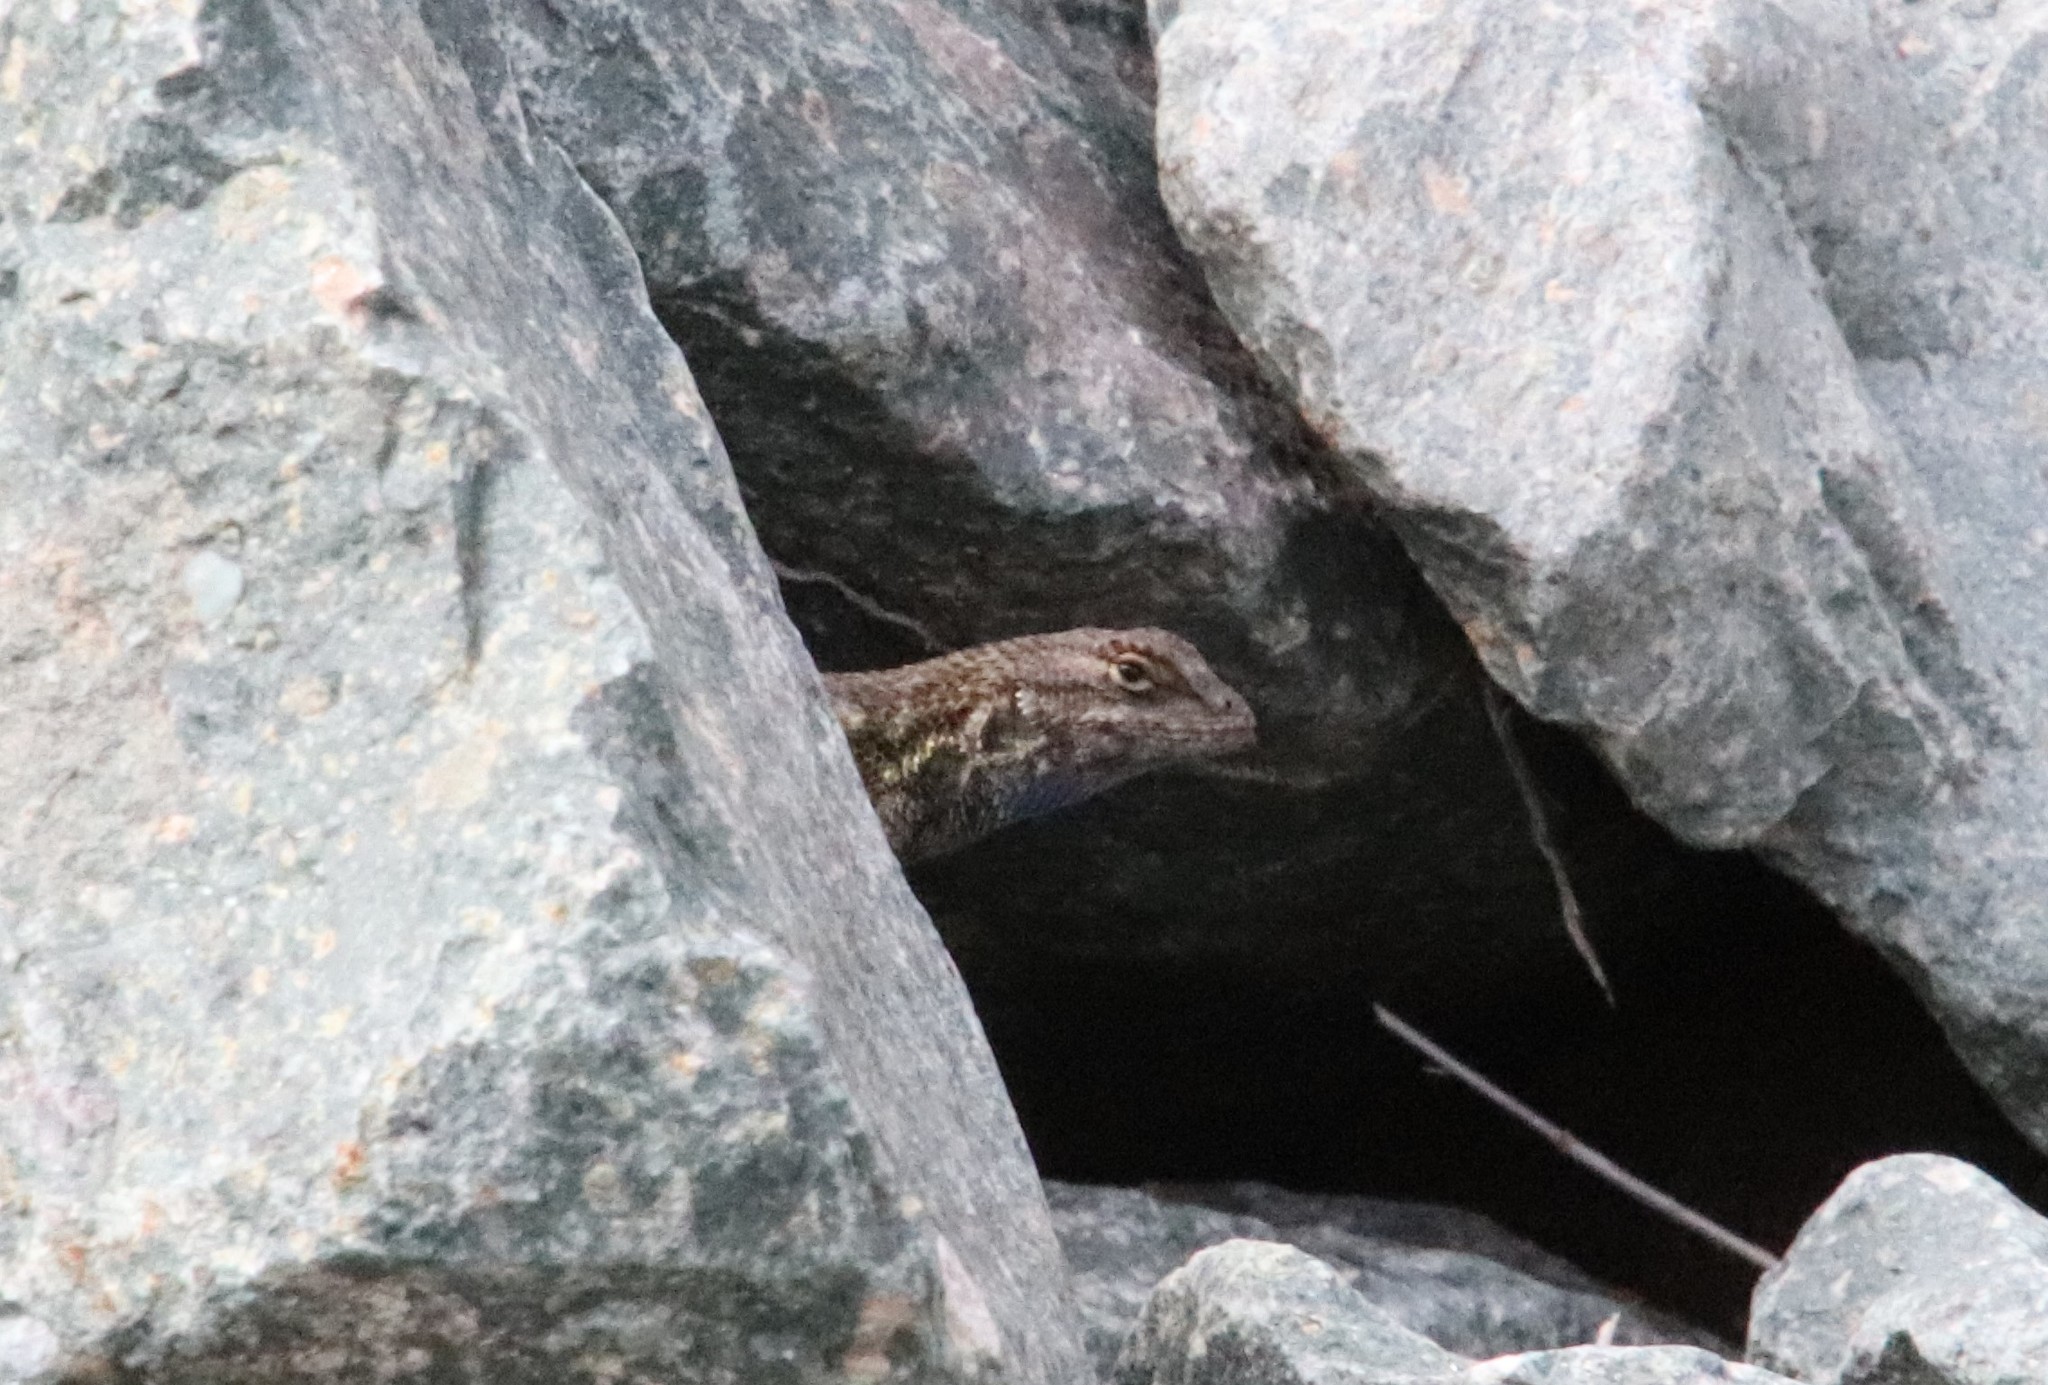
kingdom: Animalia
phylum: Chordata
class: Squamata
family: Phrynosomatidae
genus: Sceloporus
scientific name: Sceloporus occidentalis
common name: Western fence lizard
